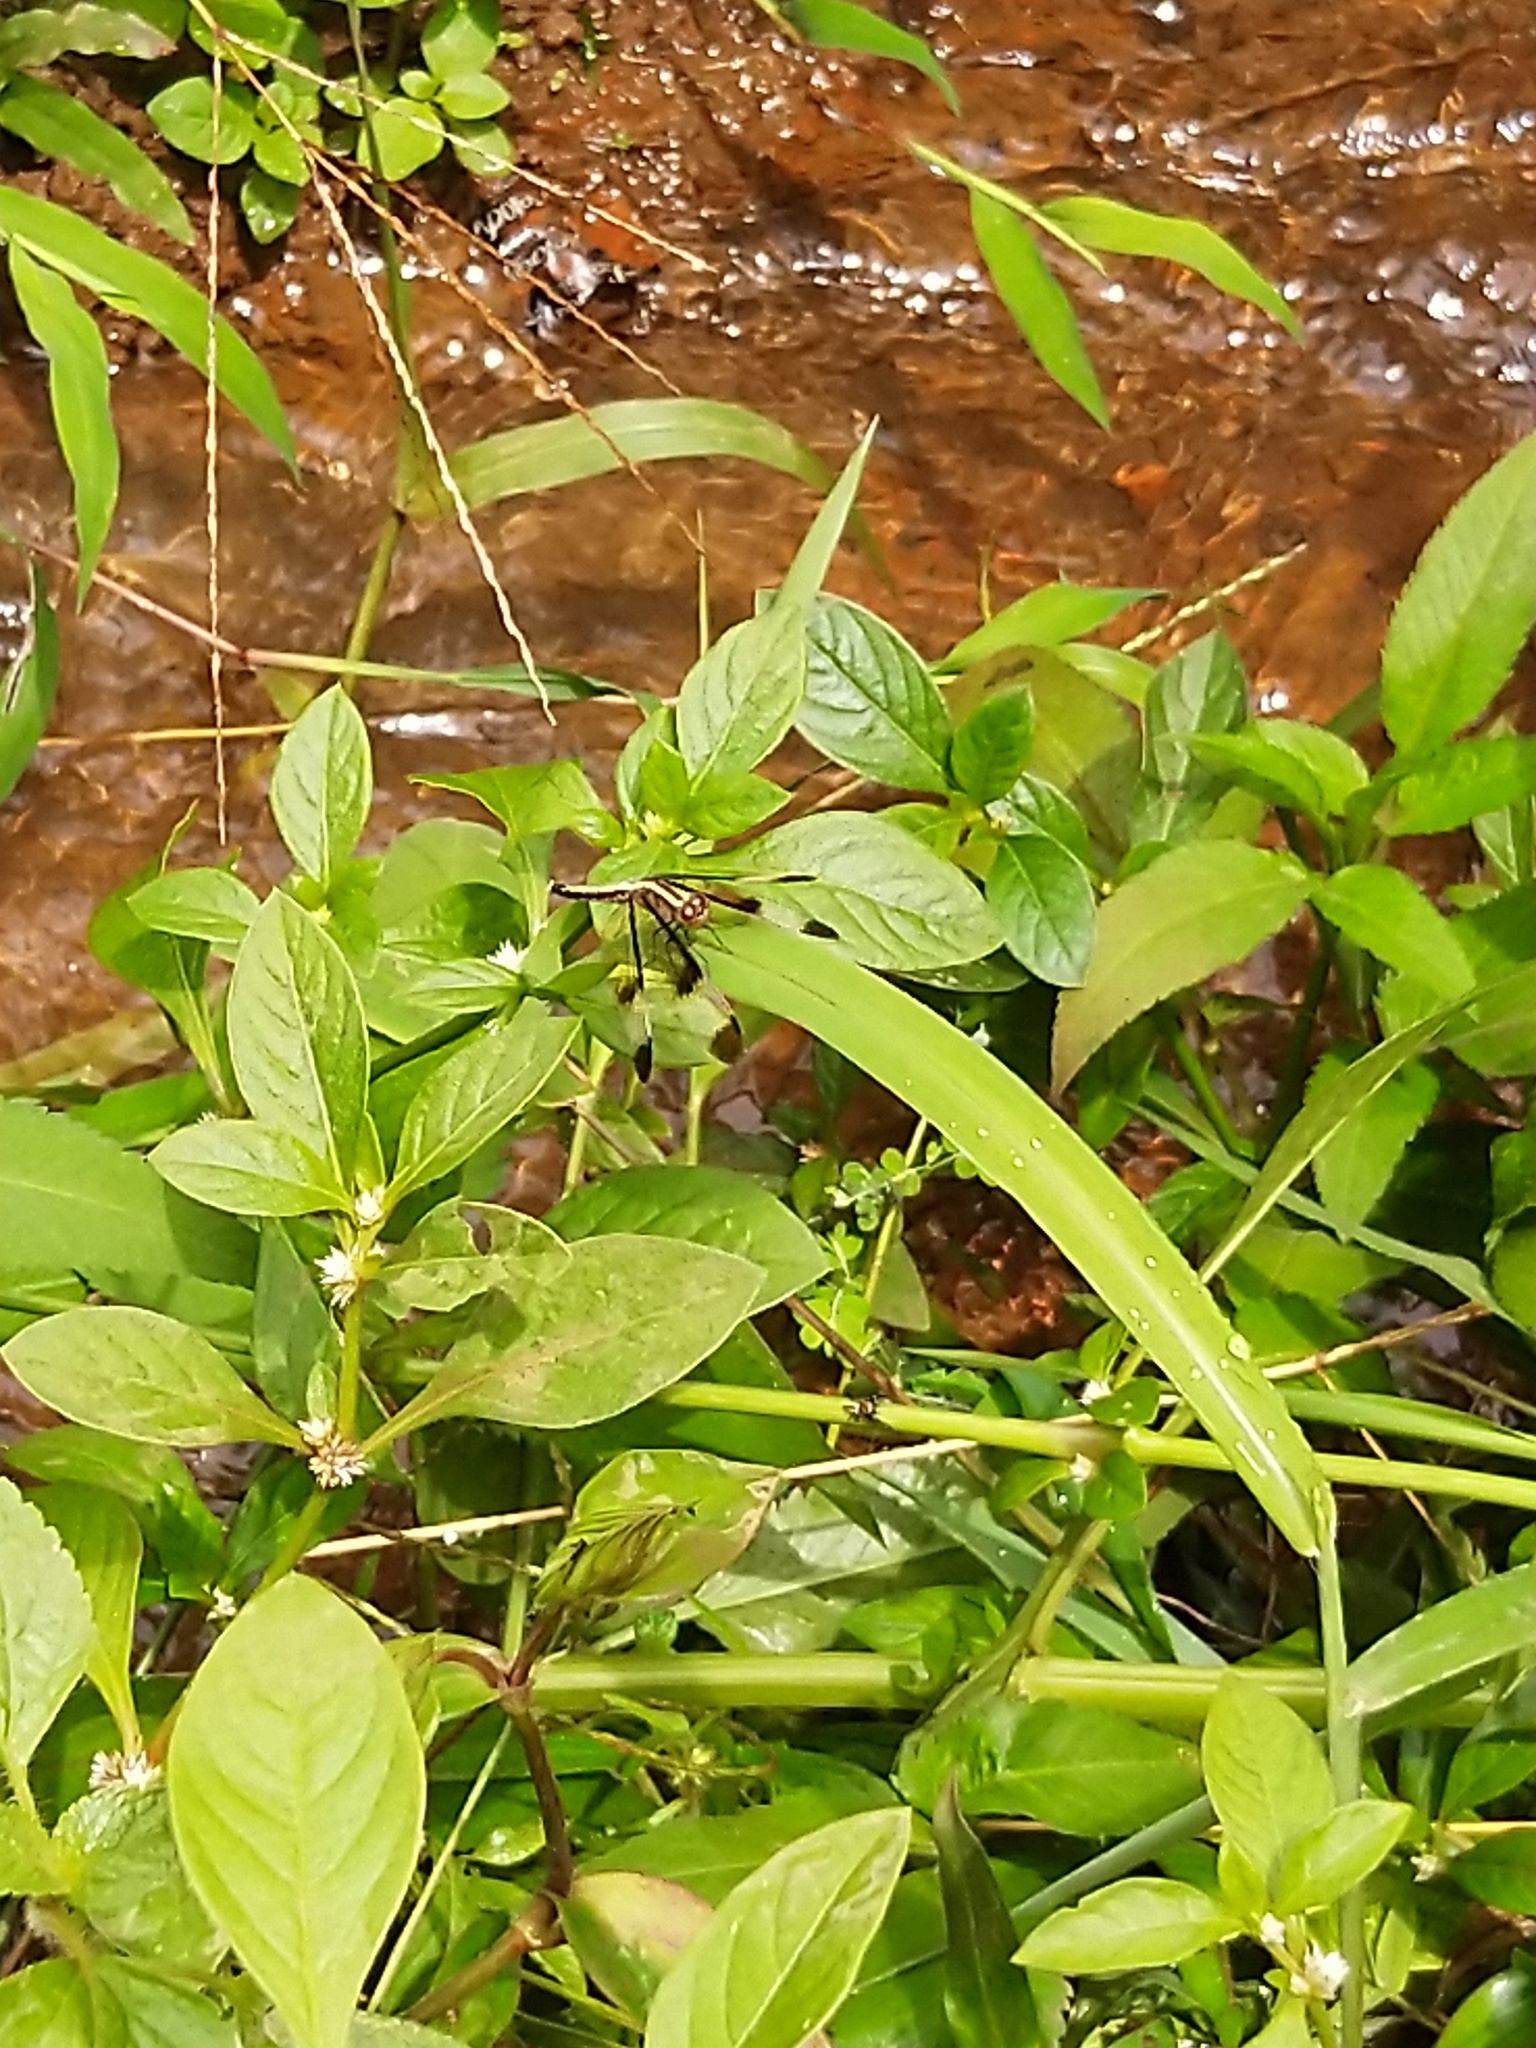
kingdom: Animalia
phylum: Arthropoda
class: Insecta
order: Odonata
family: Libellulidae
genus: Neurothemis
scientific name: Neurothemis tullia
